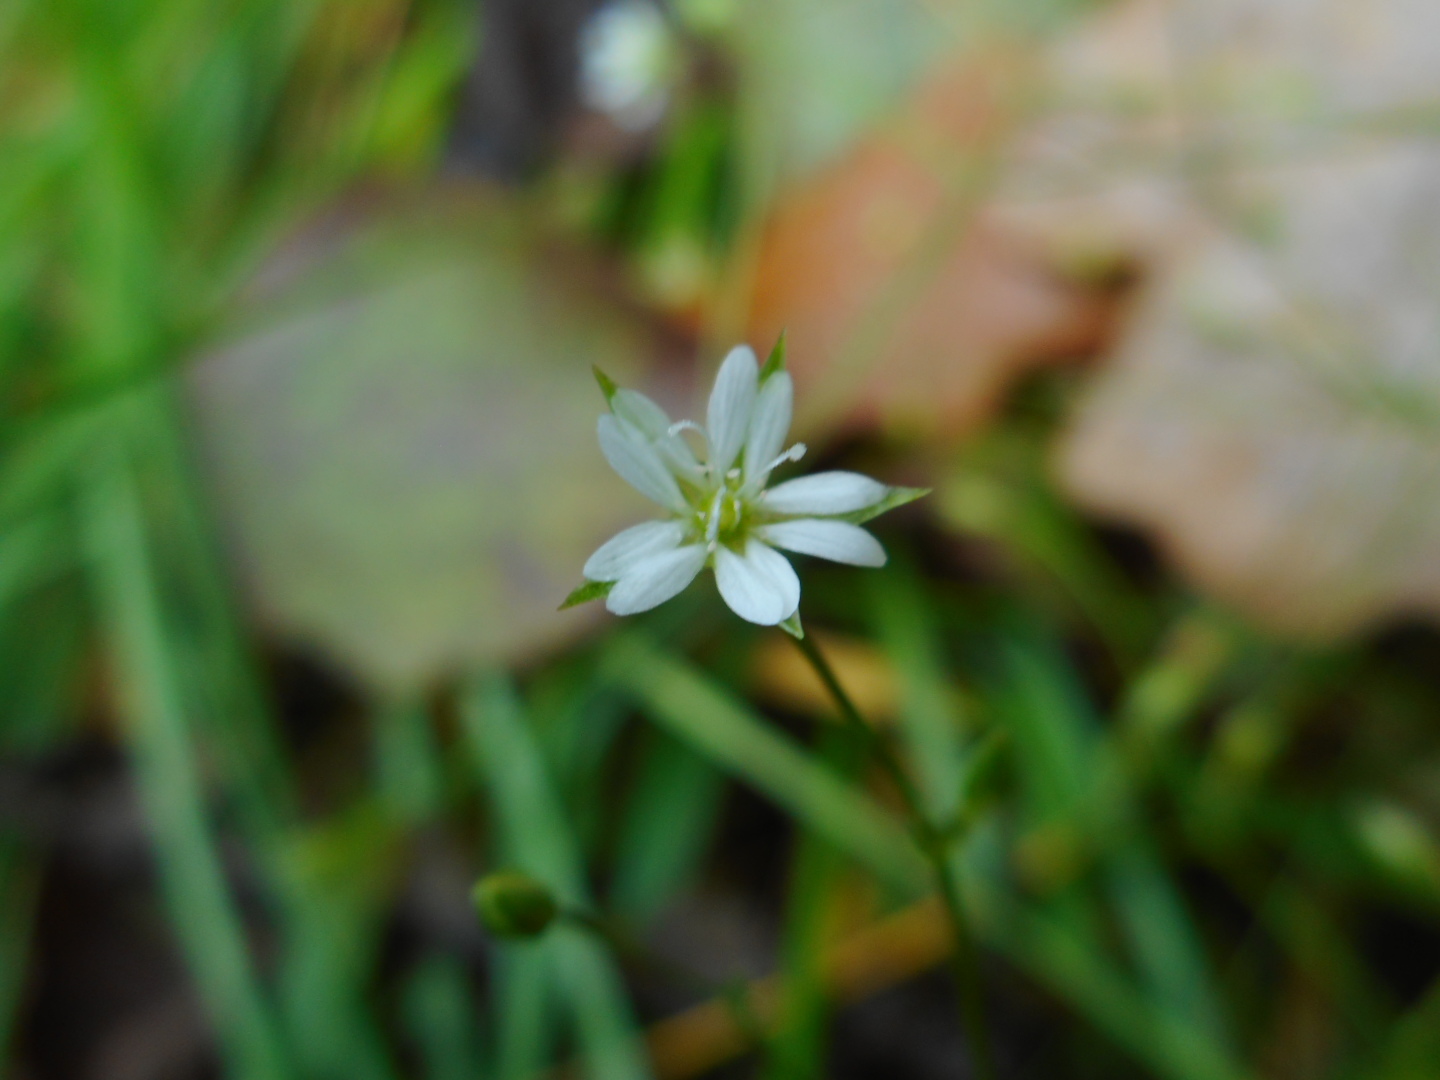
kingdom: Plantae
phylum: Tracheophyta
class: Magnoliopsida
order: Caryophyllales
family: Caryophyllaceae
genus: Stellaria
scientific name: Stellaria graminea
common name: Grass-like starwort
